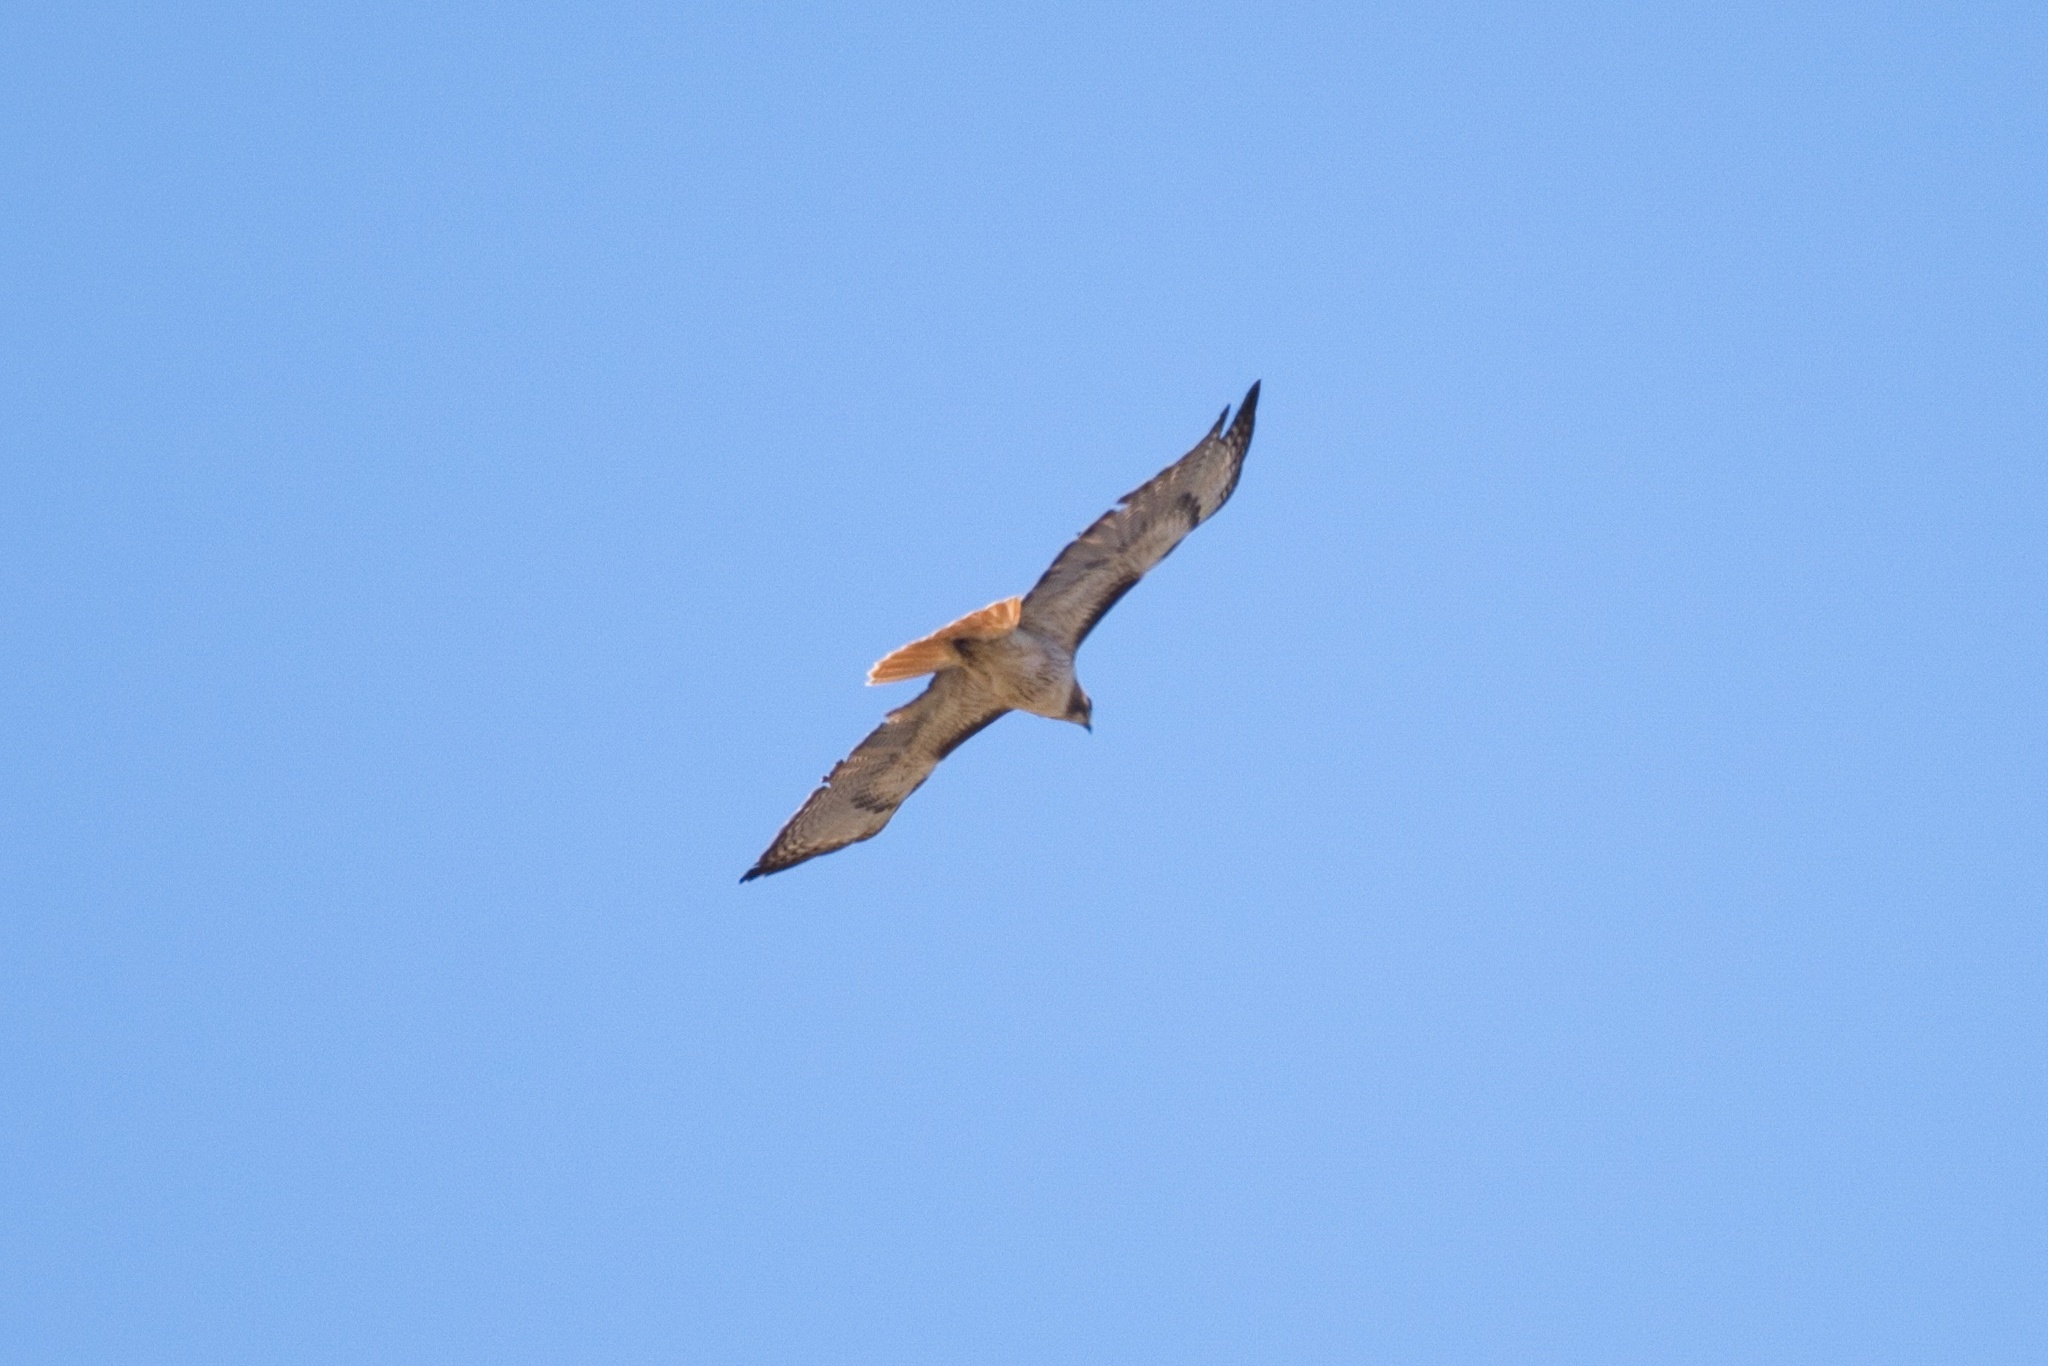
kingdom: Animalia
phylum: Chordata
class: Aves
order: Accipitriformes
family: Accipitridae
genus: Buteo
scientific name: Buteo jamaicensis
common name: Red-tailed hawk
